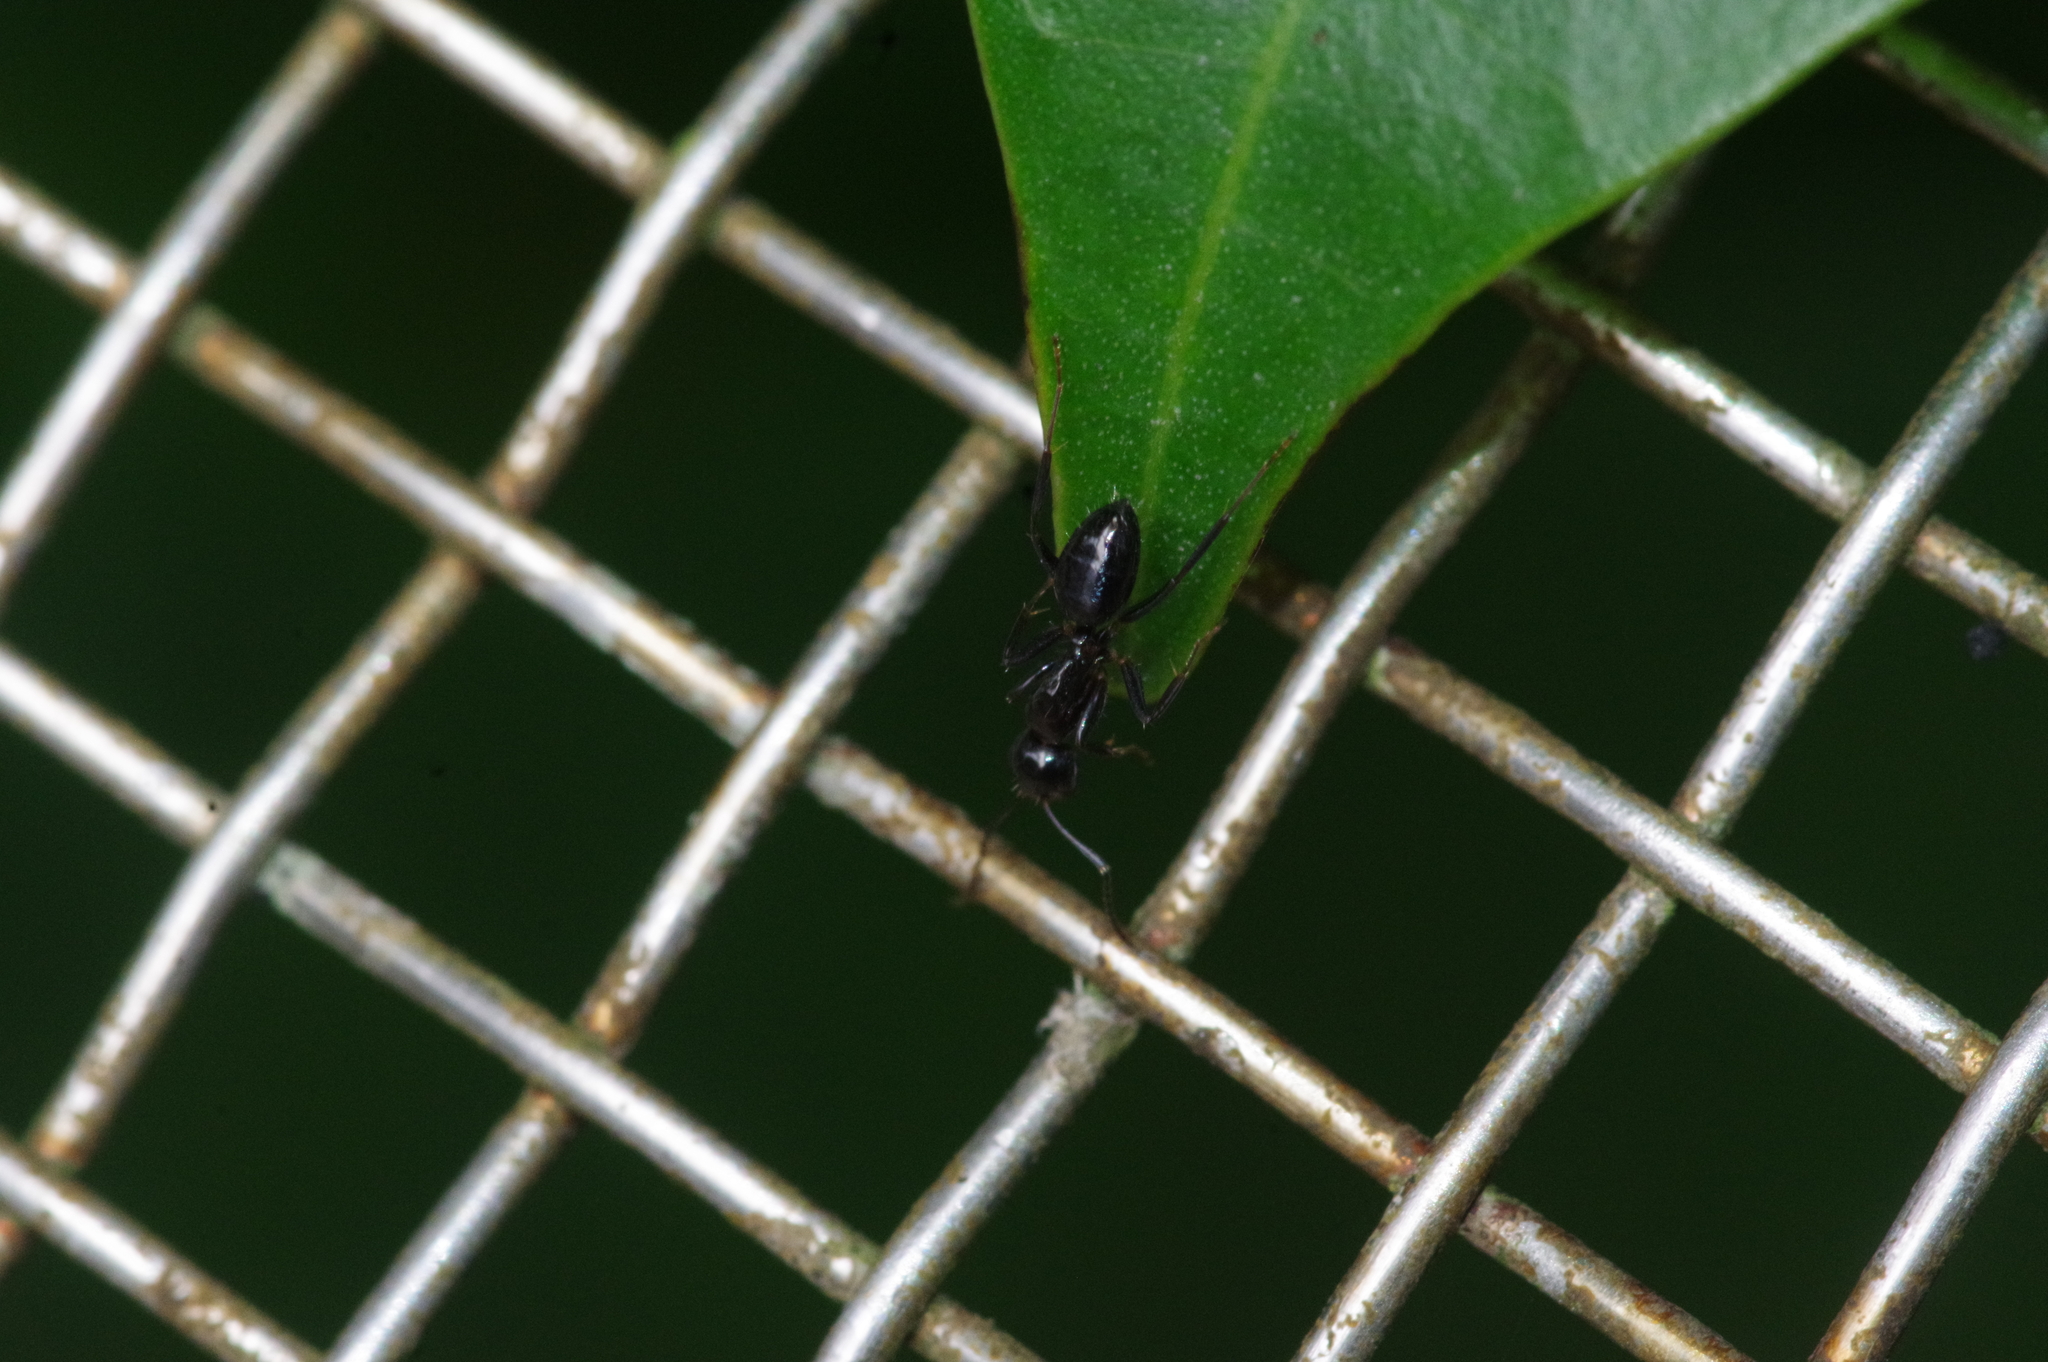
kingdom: Animalia
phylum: Arthropoda
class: Insecta
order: Hymenoptera
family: Formicidae
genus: Camponotus
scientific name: Camponotus
